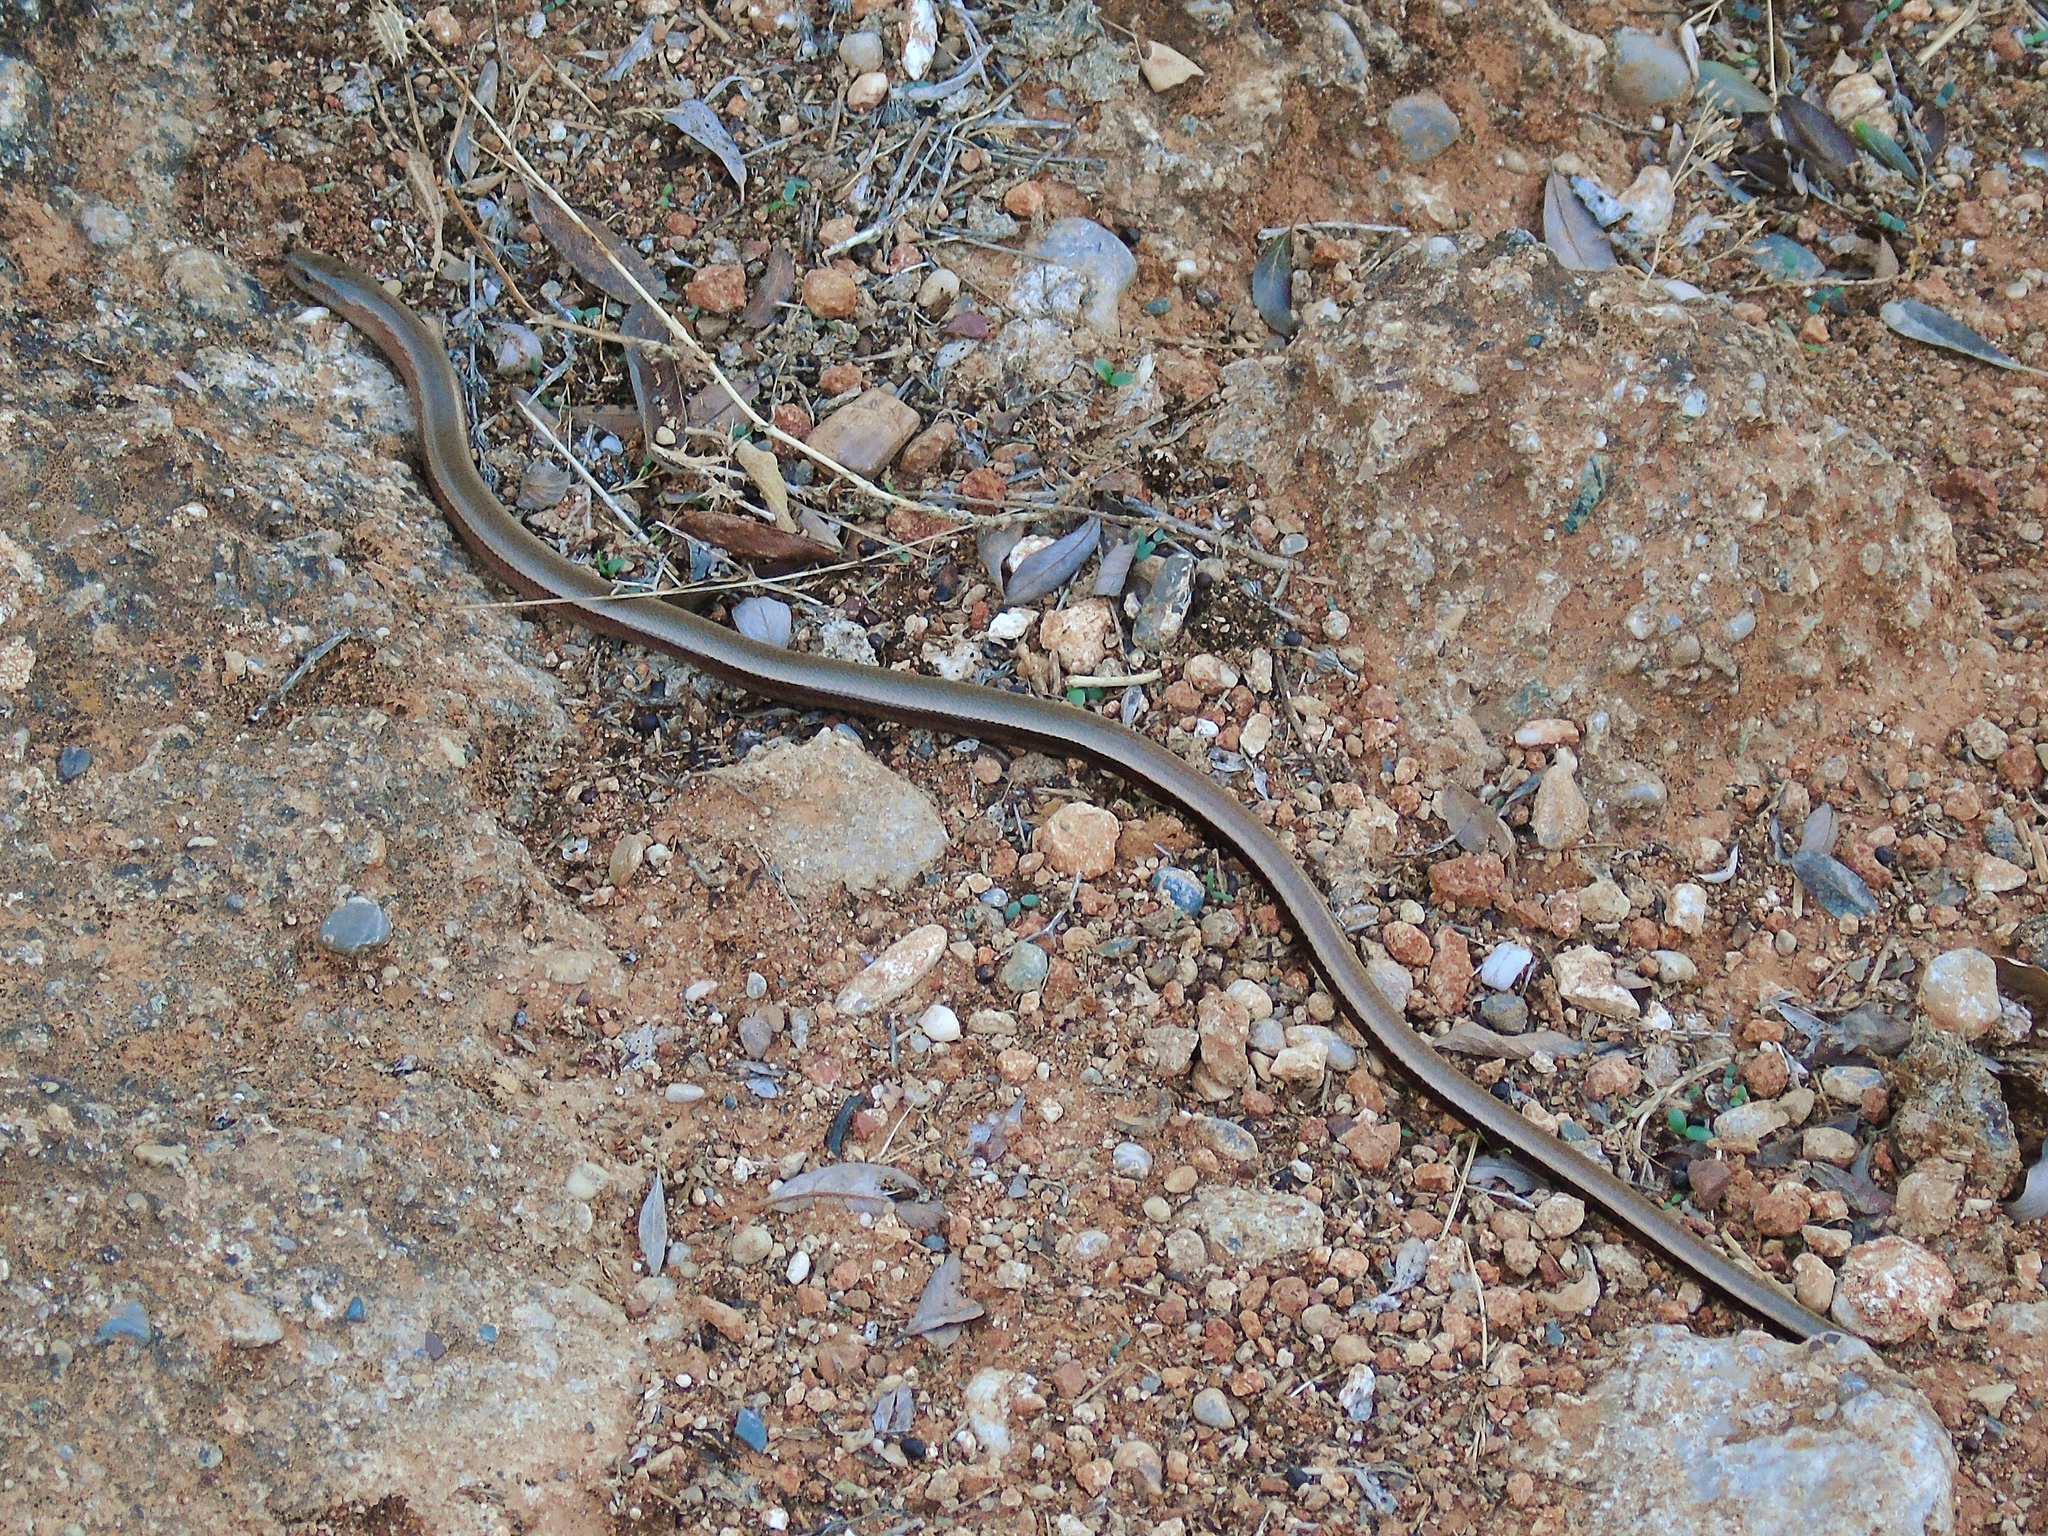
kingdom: Animalia
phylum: Chordata
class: Squamata
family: Anguidae
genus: Anguis
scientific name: Anguis cephallonica
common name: Peloponnese slow worm
